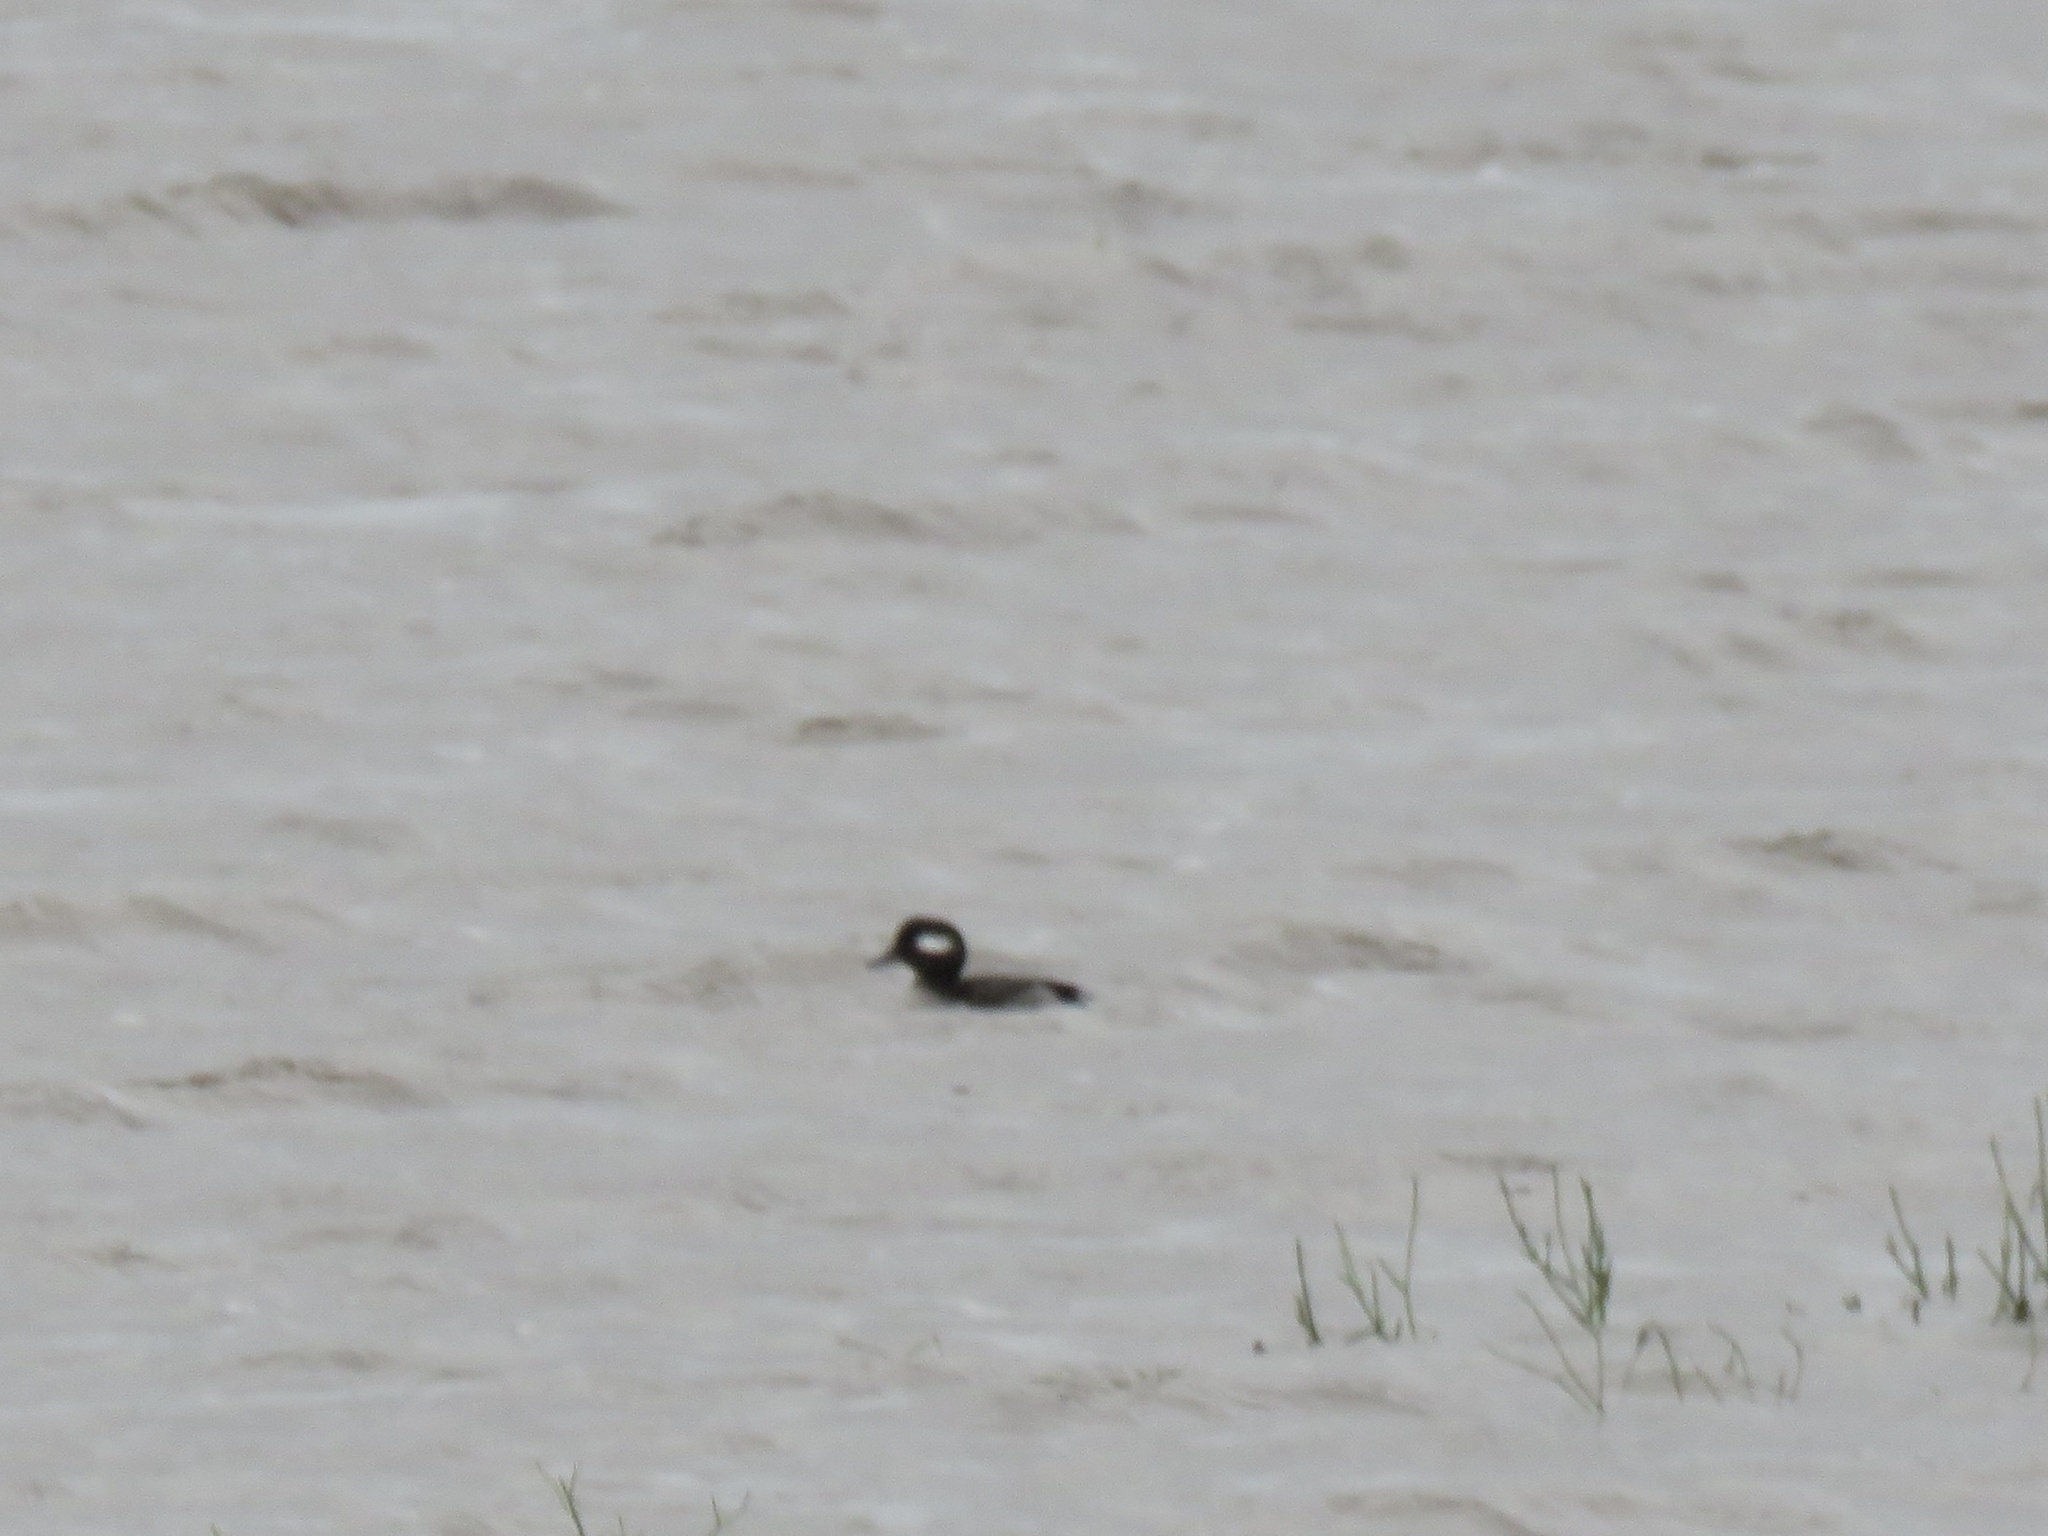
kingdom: Animalia
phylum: Chordata
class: Aves
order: Anseriformes
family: Anatidae
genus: Bucephala
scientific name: Bucephala albeola
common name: Bufflehead
